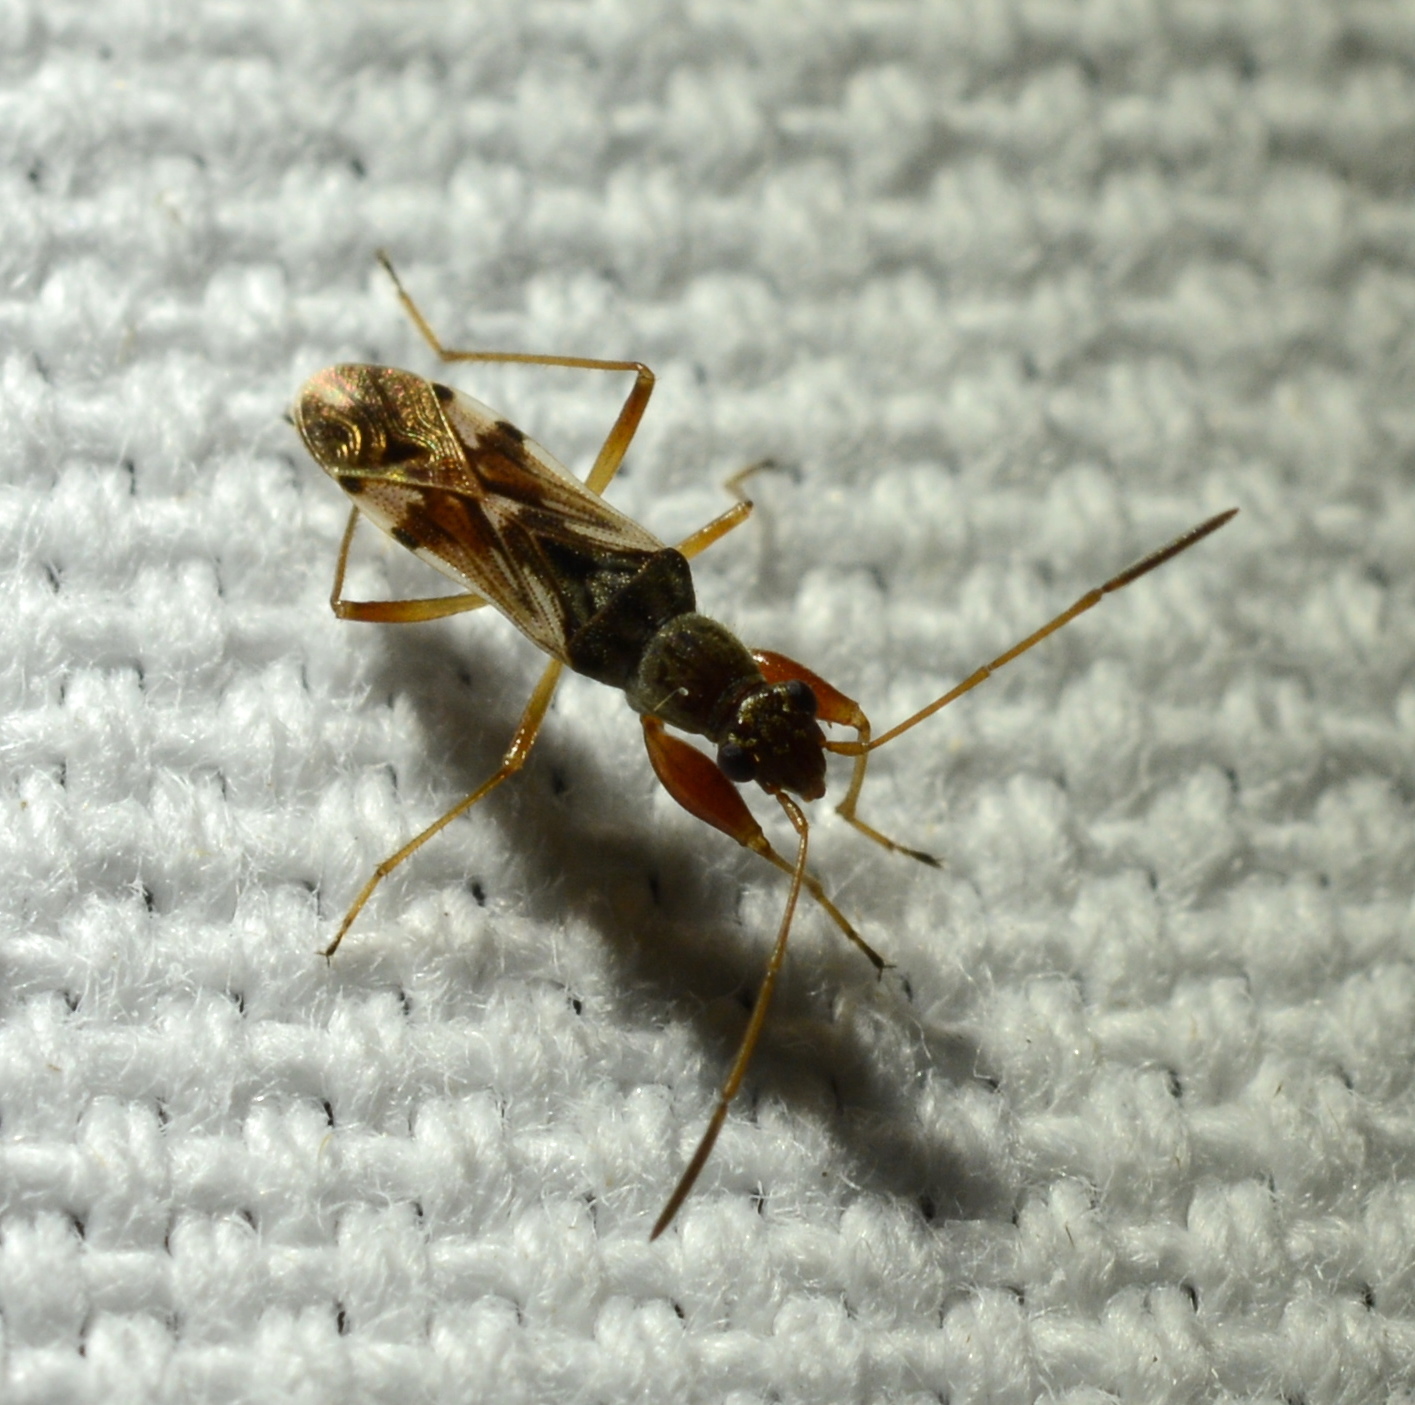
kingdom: Animalia
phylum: Arthropoda
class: Insecta
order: Hemiptera
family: Rhyparochromidae
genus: Neopamera
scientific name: Neopamera bilobata
